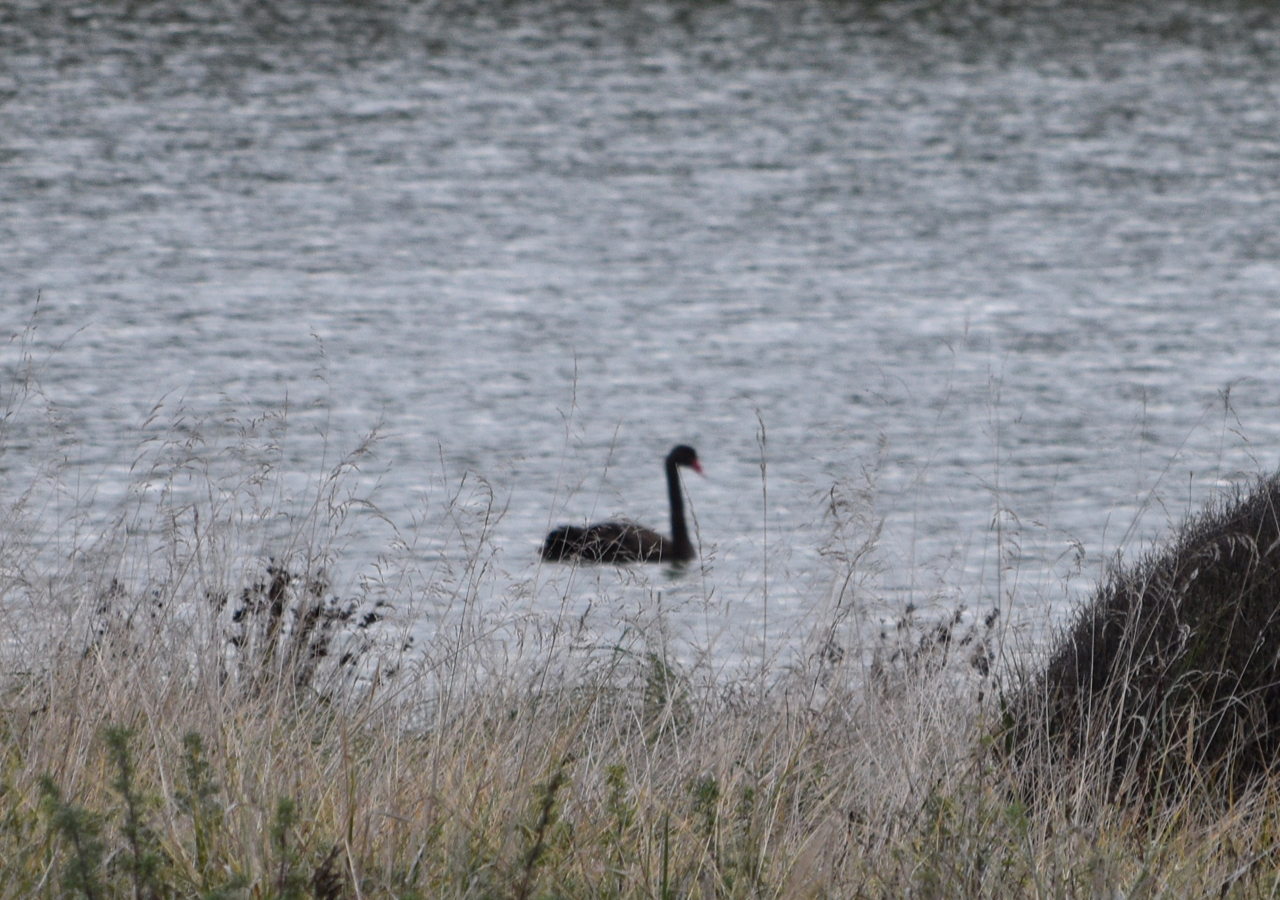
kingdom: Animalia
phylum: Chordata
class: Aves
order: Anseriformes
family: Anatidae
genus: Cygnus
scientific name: Cygnus atratus
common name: Black swan
